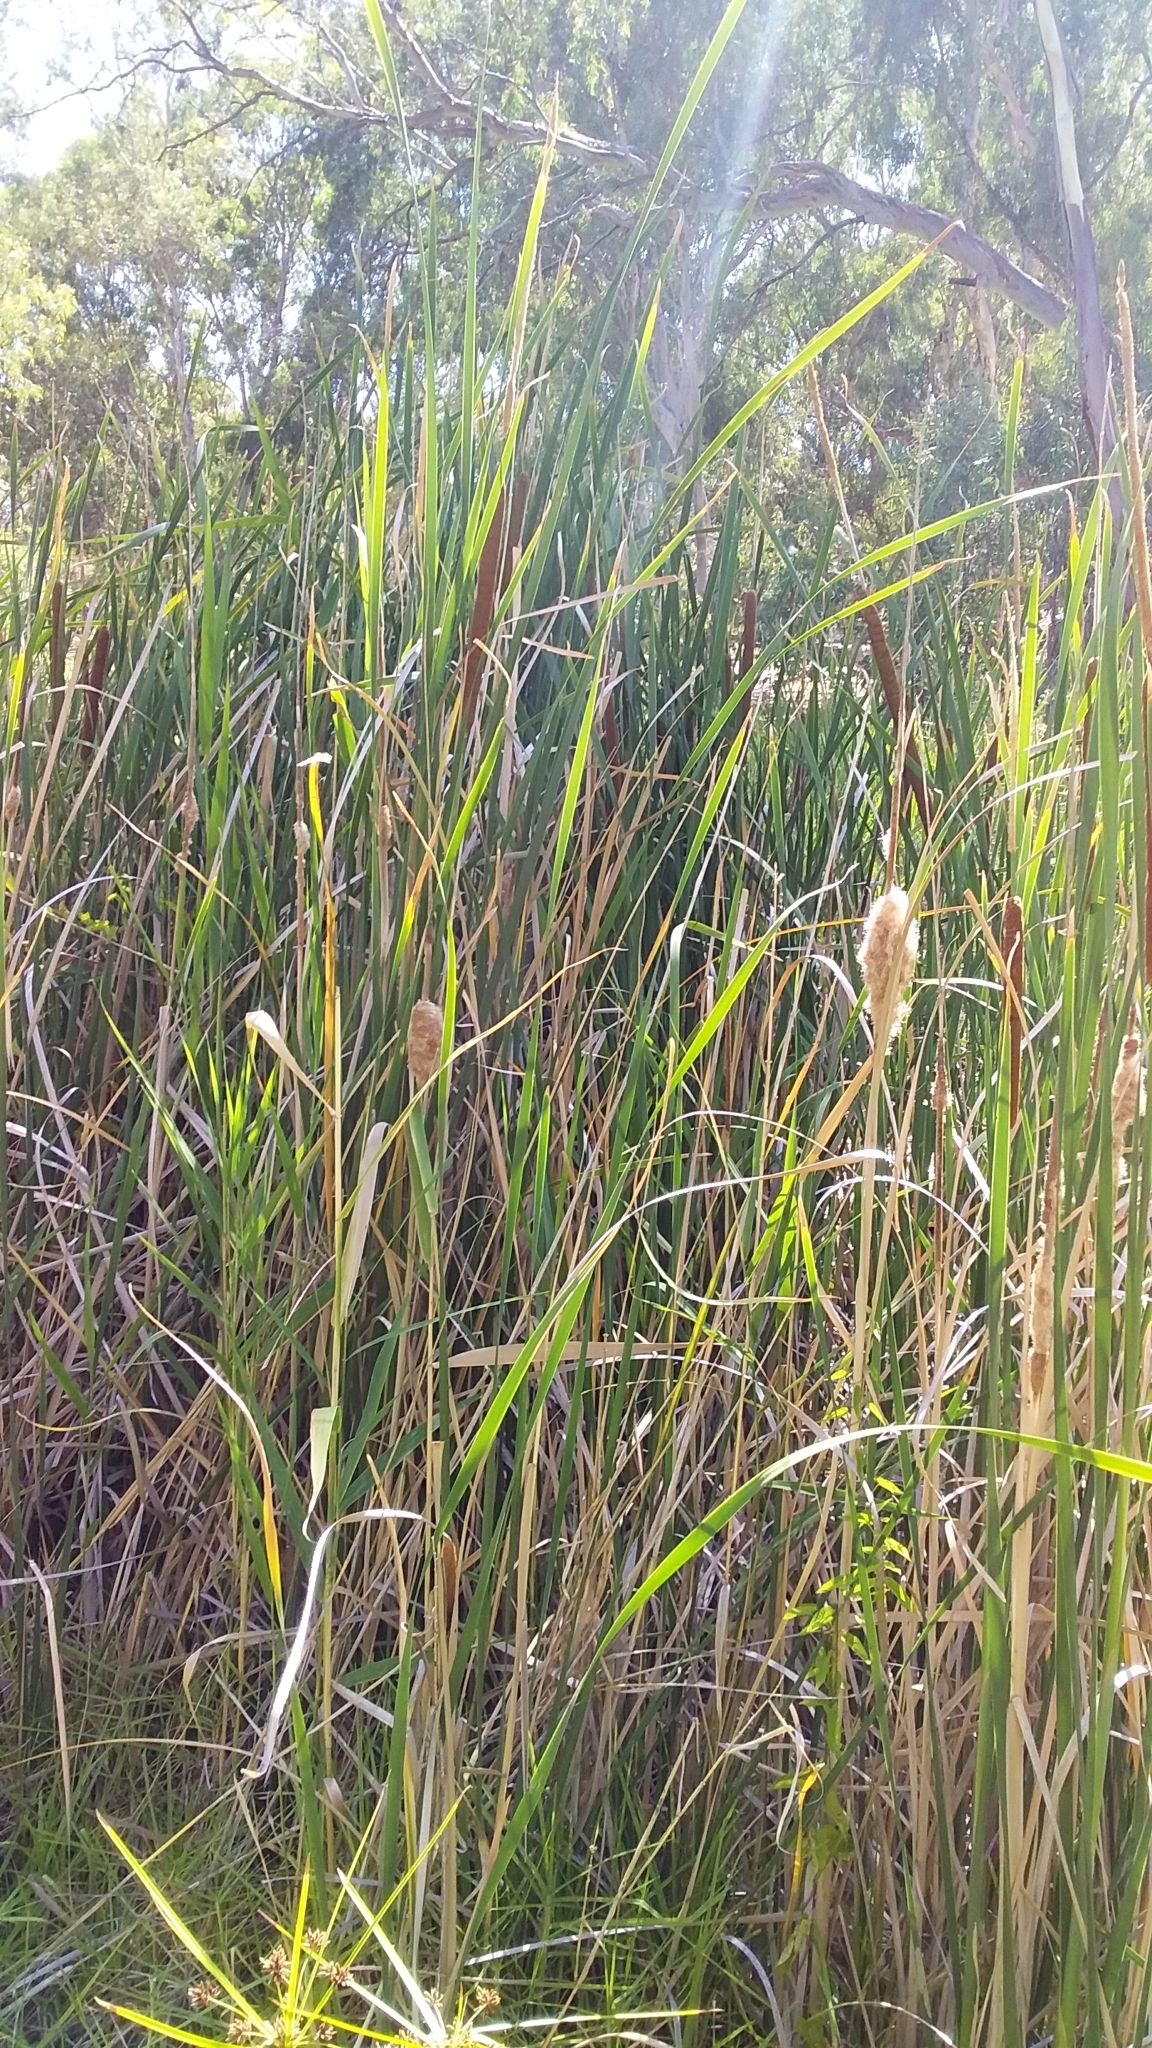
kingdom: Plantae
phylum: Tracheophyta
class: Liliopsida
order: Poales
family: Typhaceae
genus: Typha
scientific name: Typha domingensis
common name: Southern cattail
